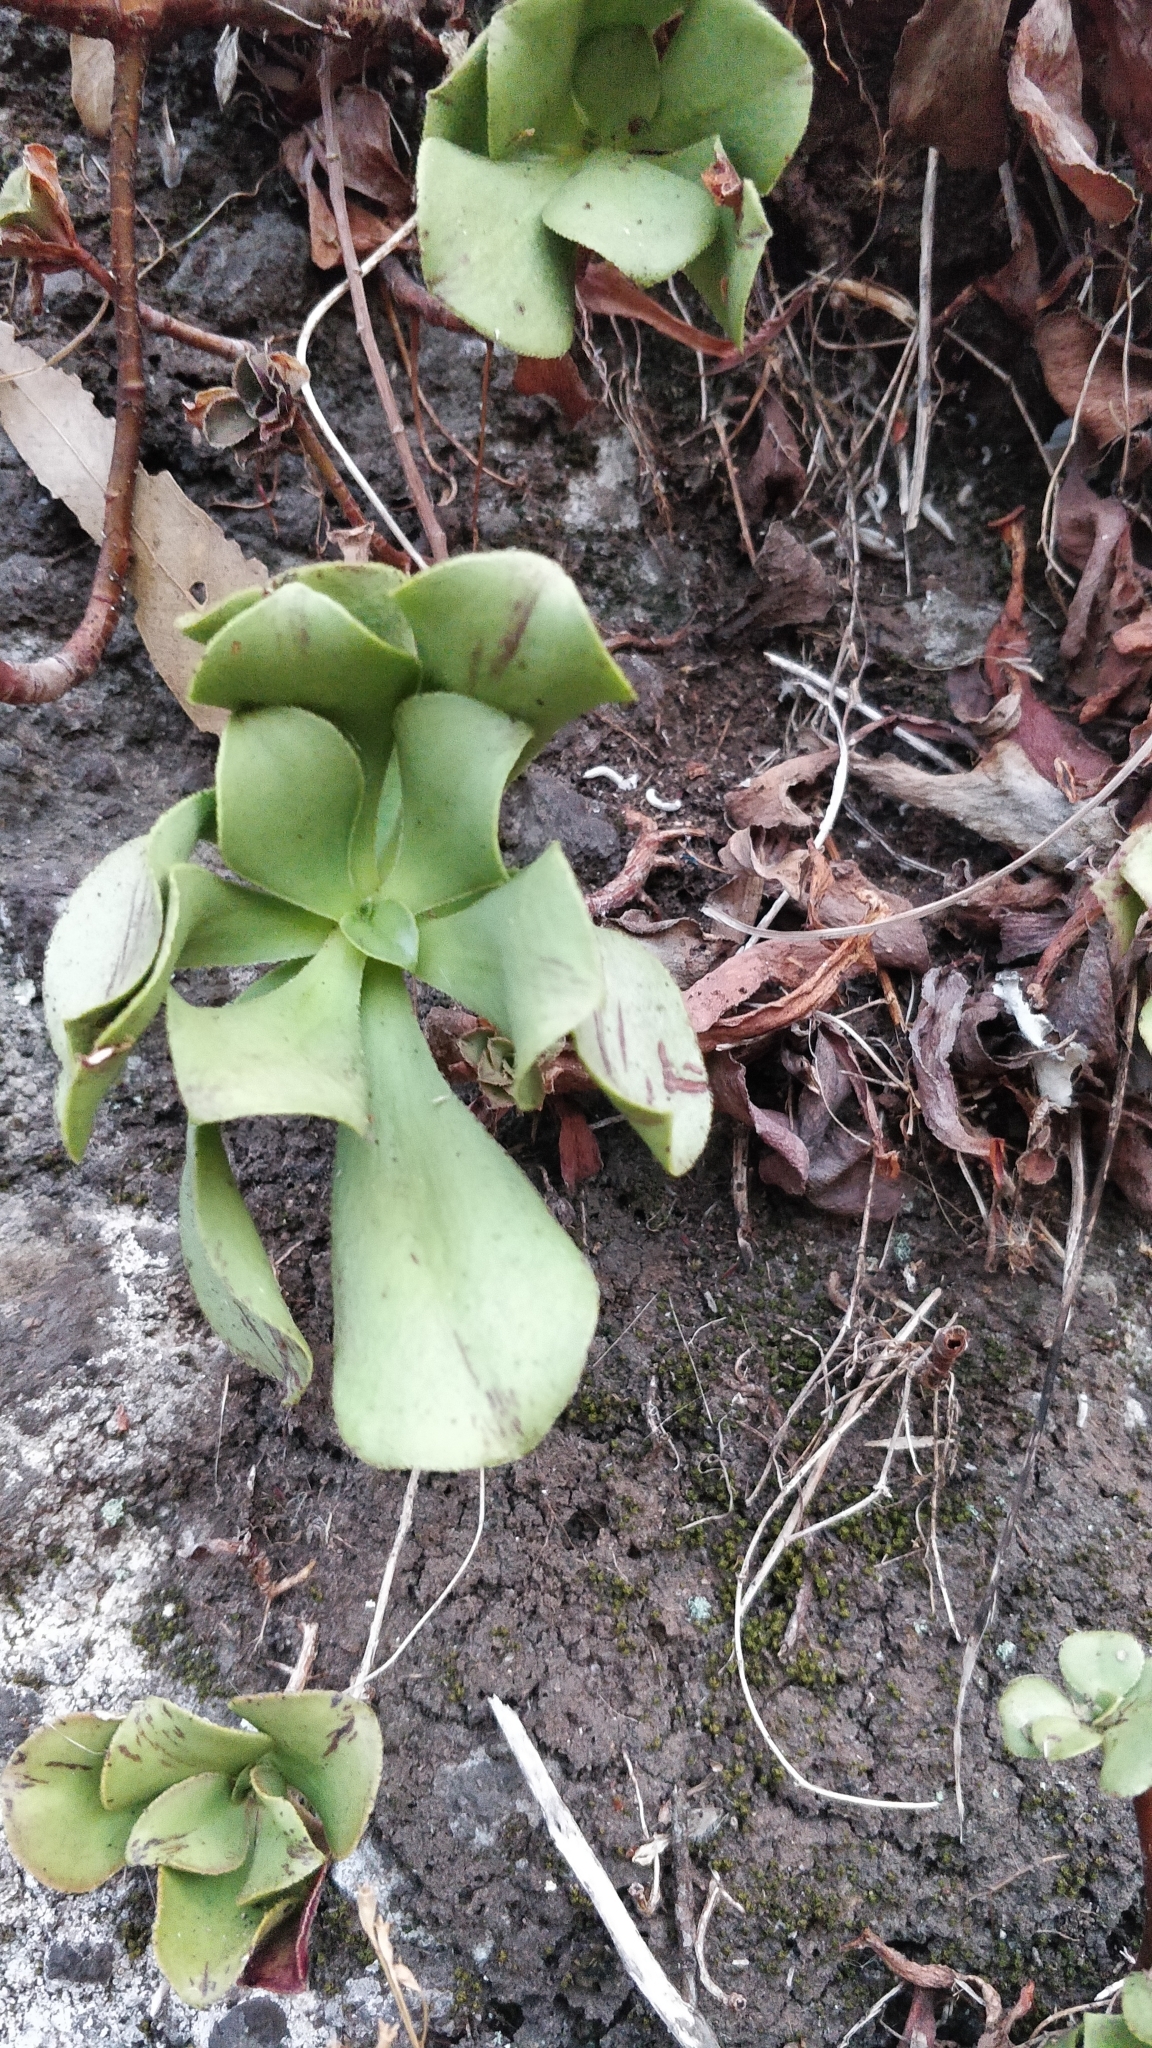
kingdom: Plantae
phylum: Tracheophyta
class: Magnoliopsida
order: Saxifragales
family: Crassulaceae
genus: Aeonium
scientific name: Aeonium glutinosum
